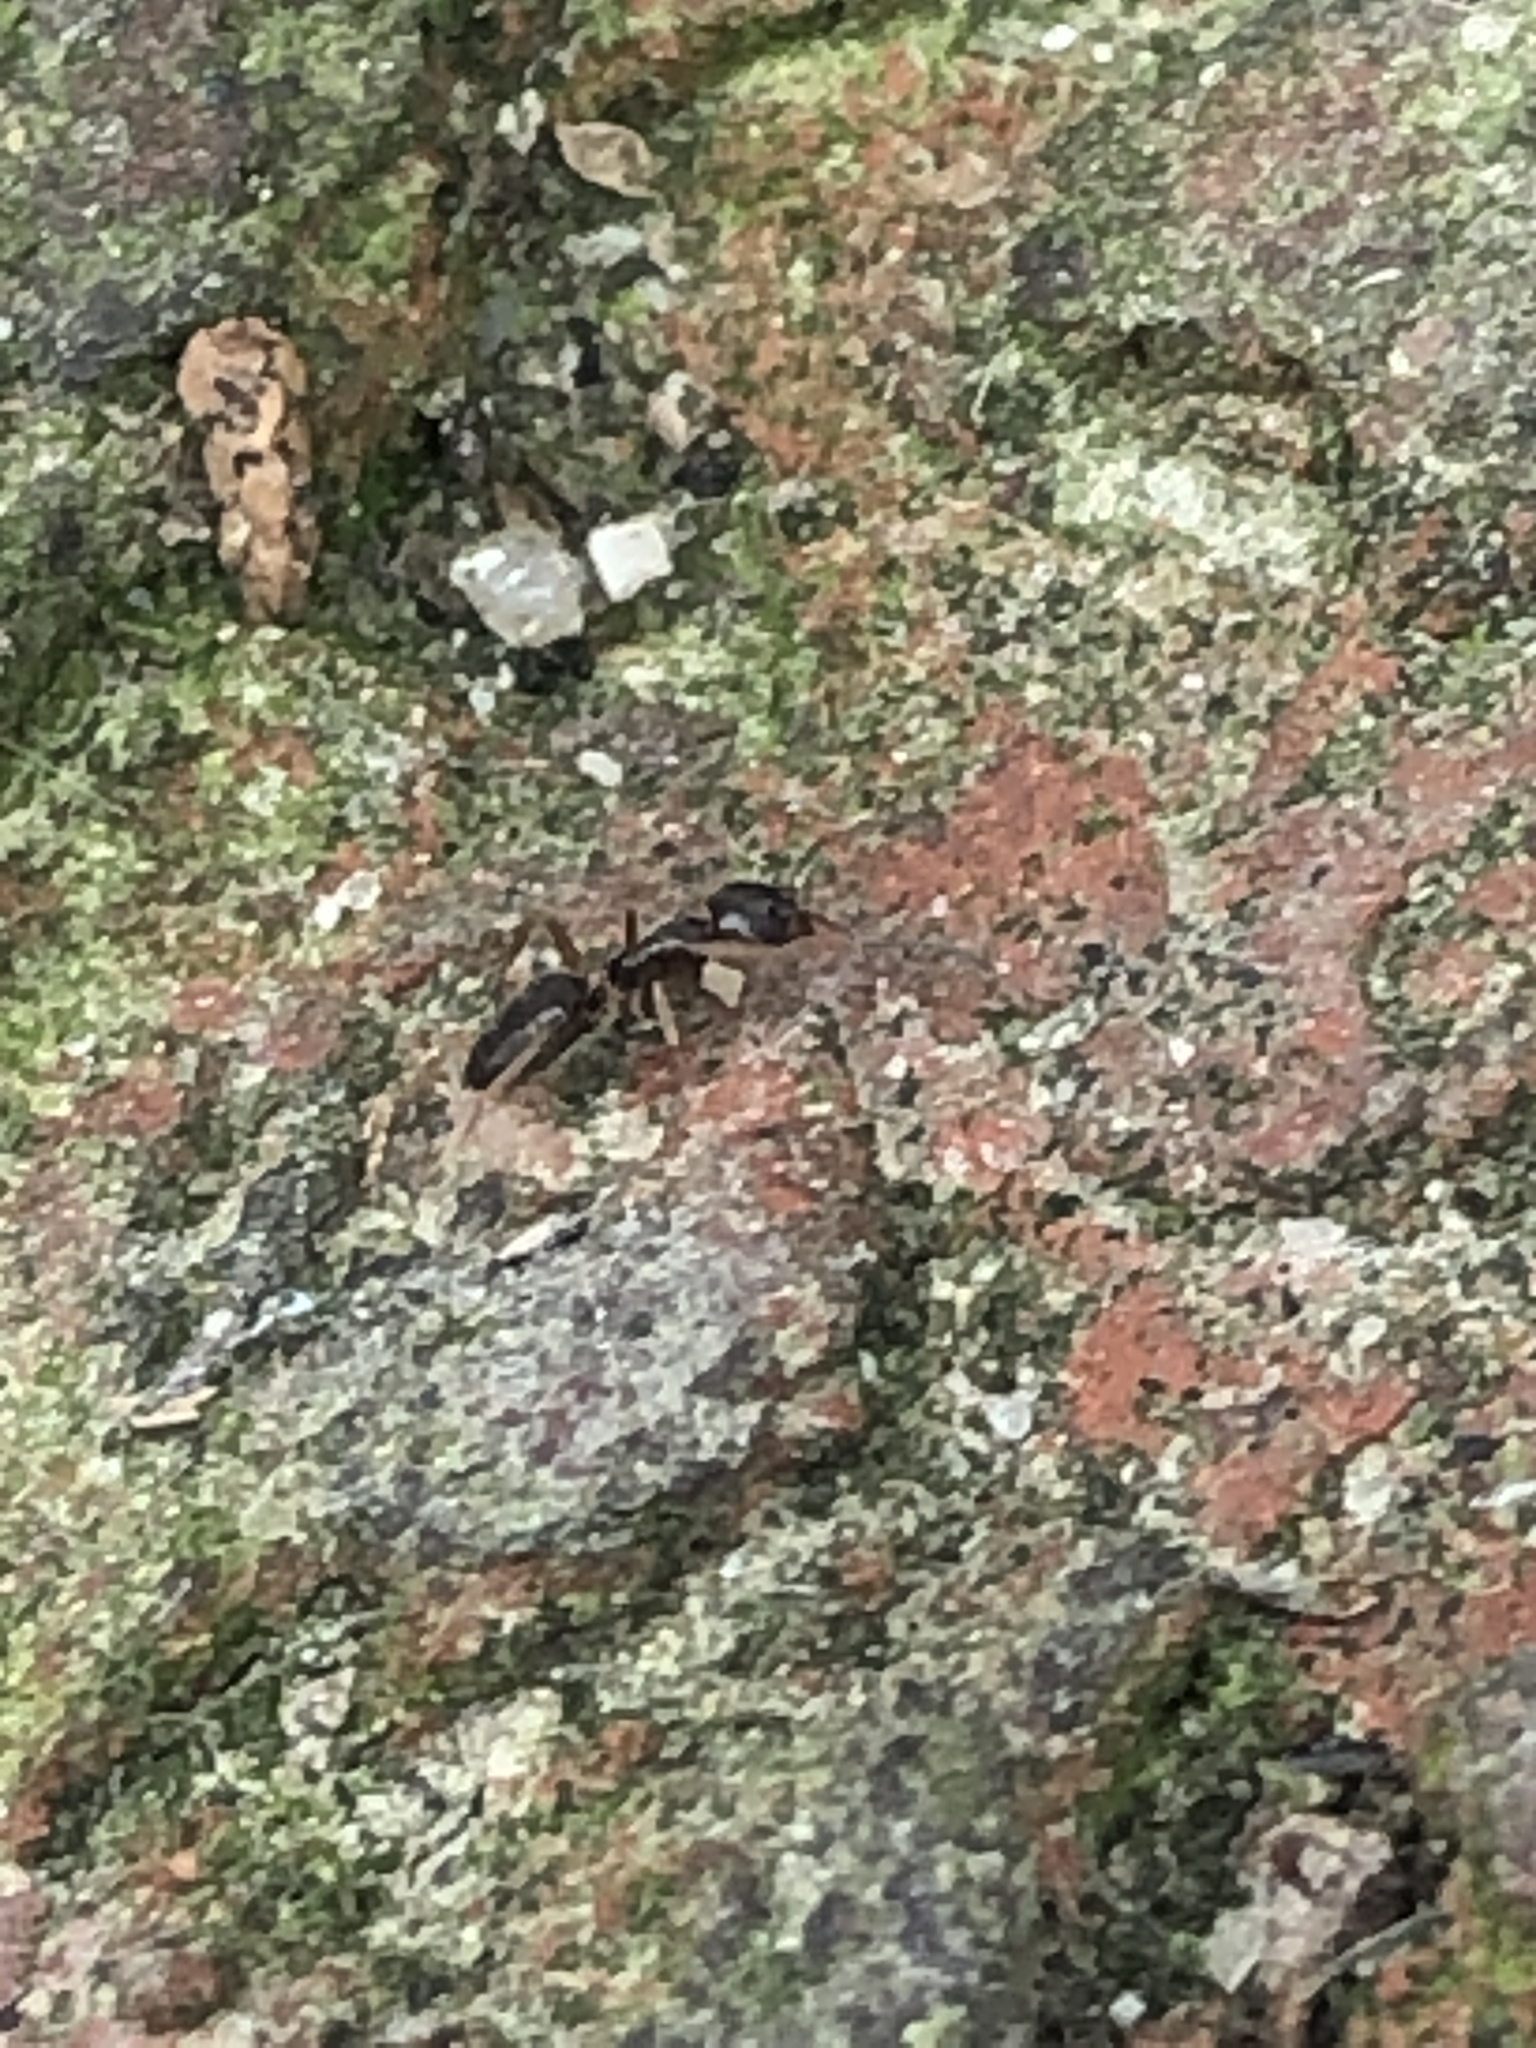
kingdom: Animalia
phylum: Arthropoda
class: Insecta
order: Hymenoptera
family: Formicidae
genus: Tapinoma
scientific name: Tapinoma sessile
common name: Odorous house ant
